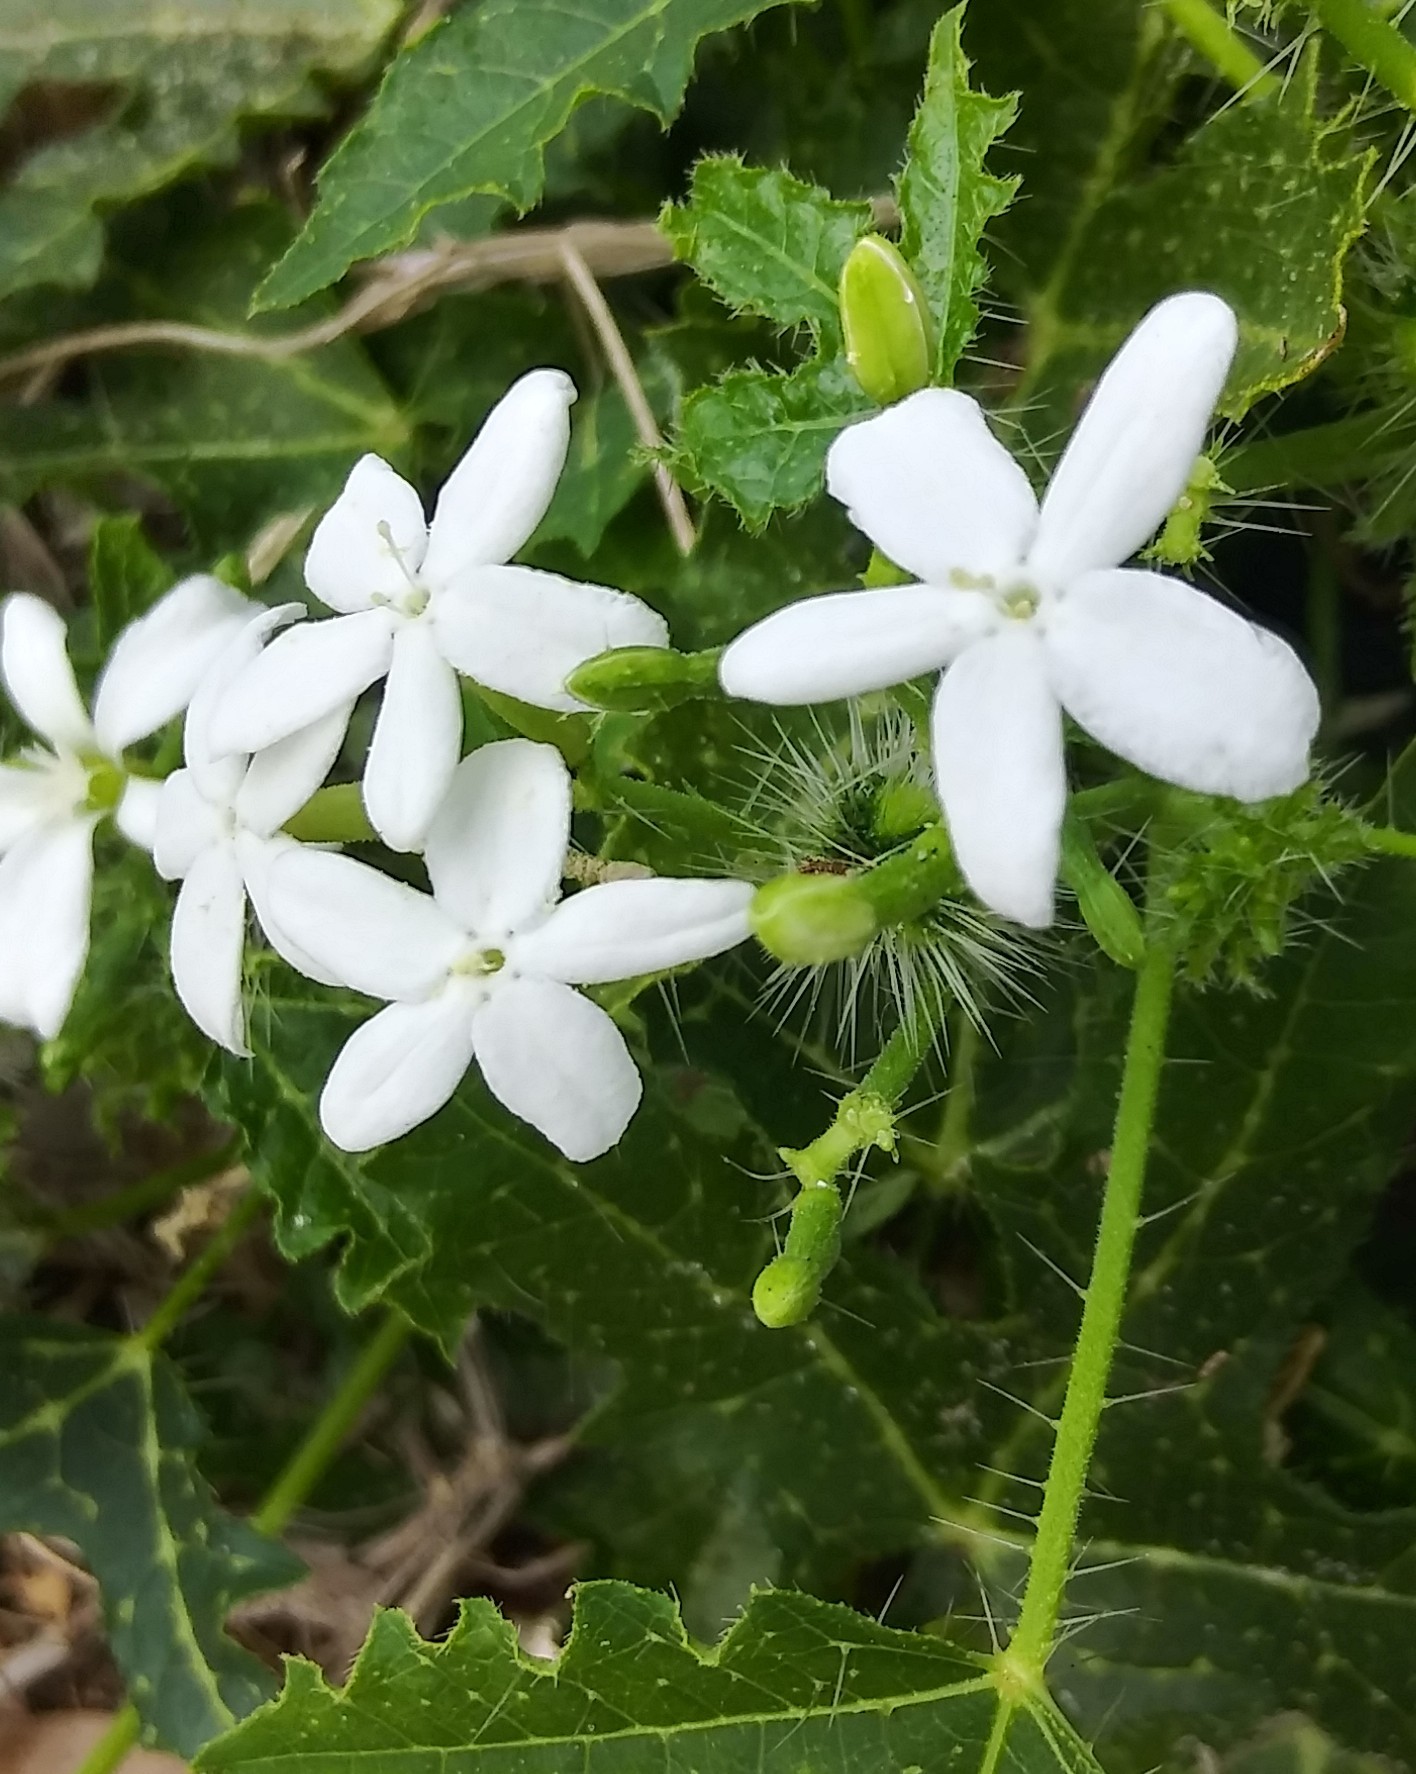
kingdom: Plantae
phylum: Tracheophyta
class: Magnoliopsida
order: Malpighiales
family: Euphorbiaceae
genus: Cnidoscolus
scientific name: Cnidoscolus stimulosus
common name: Bull-nettle
